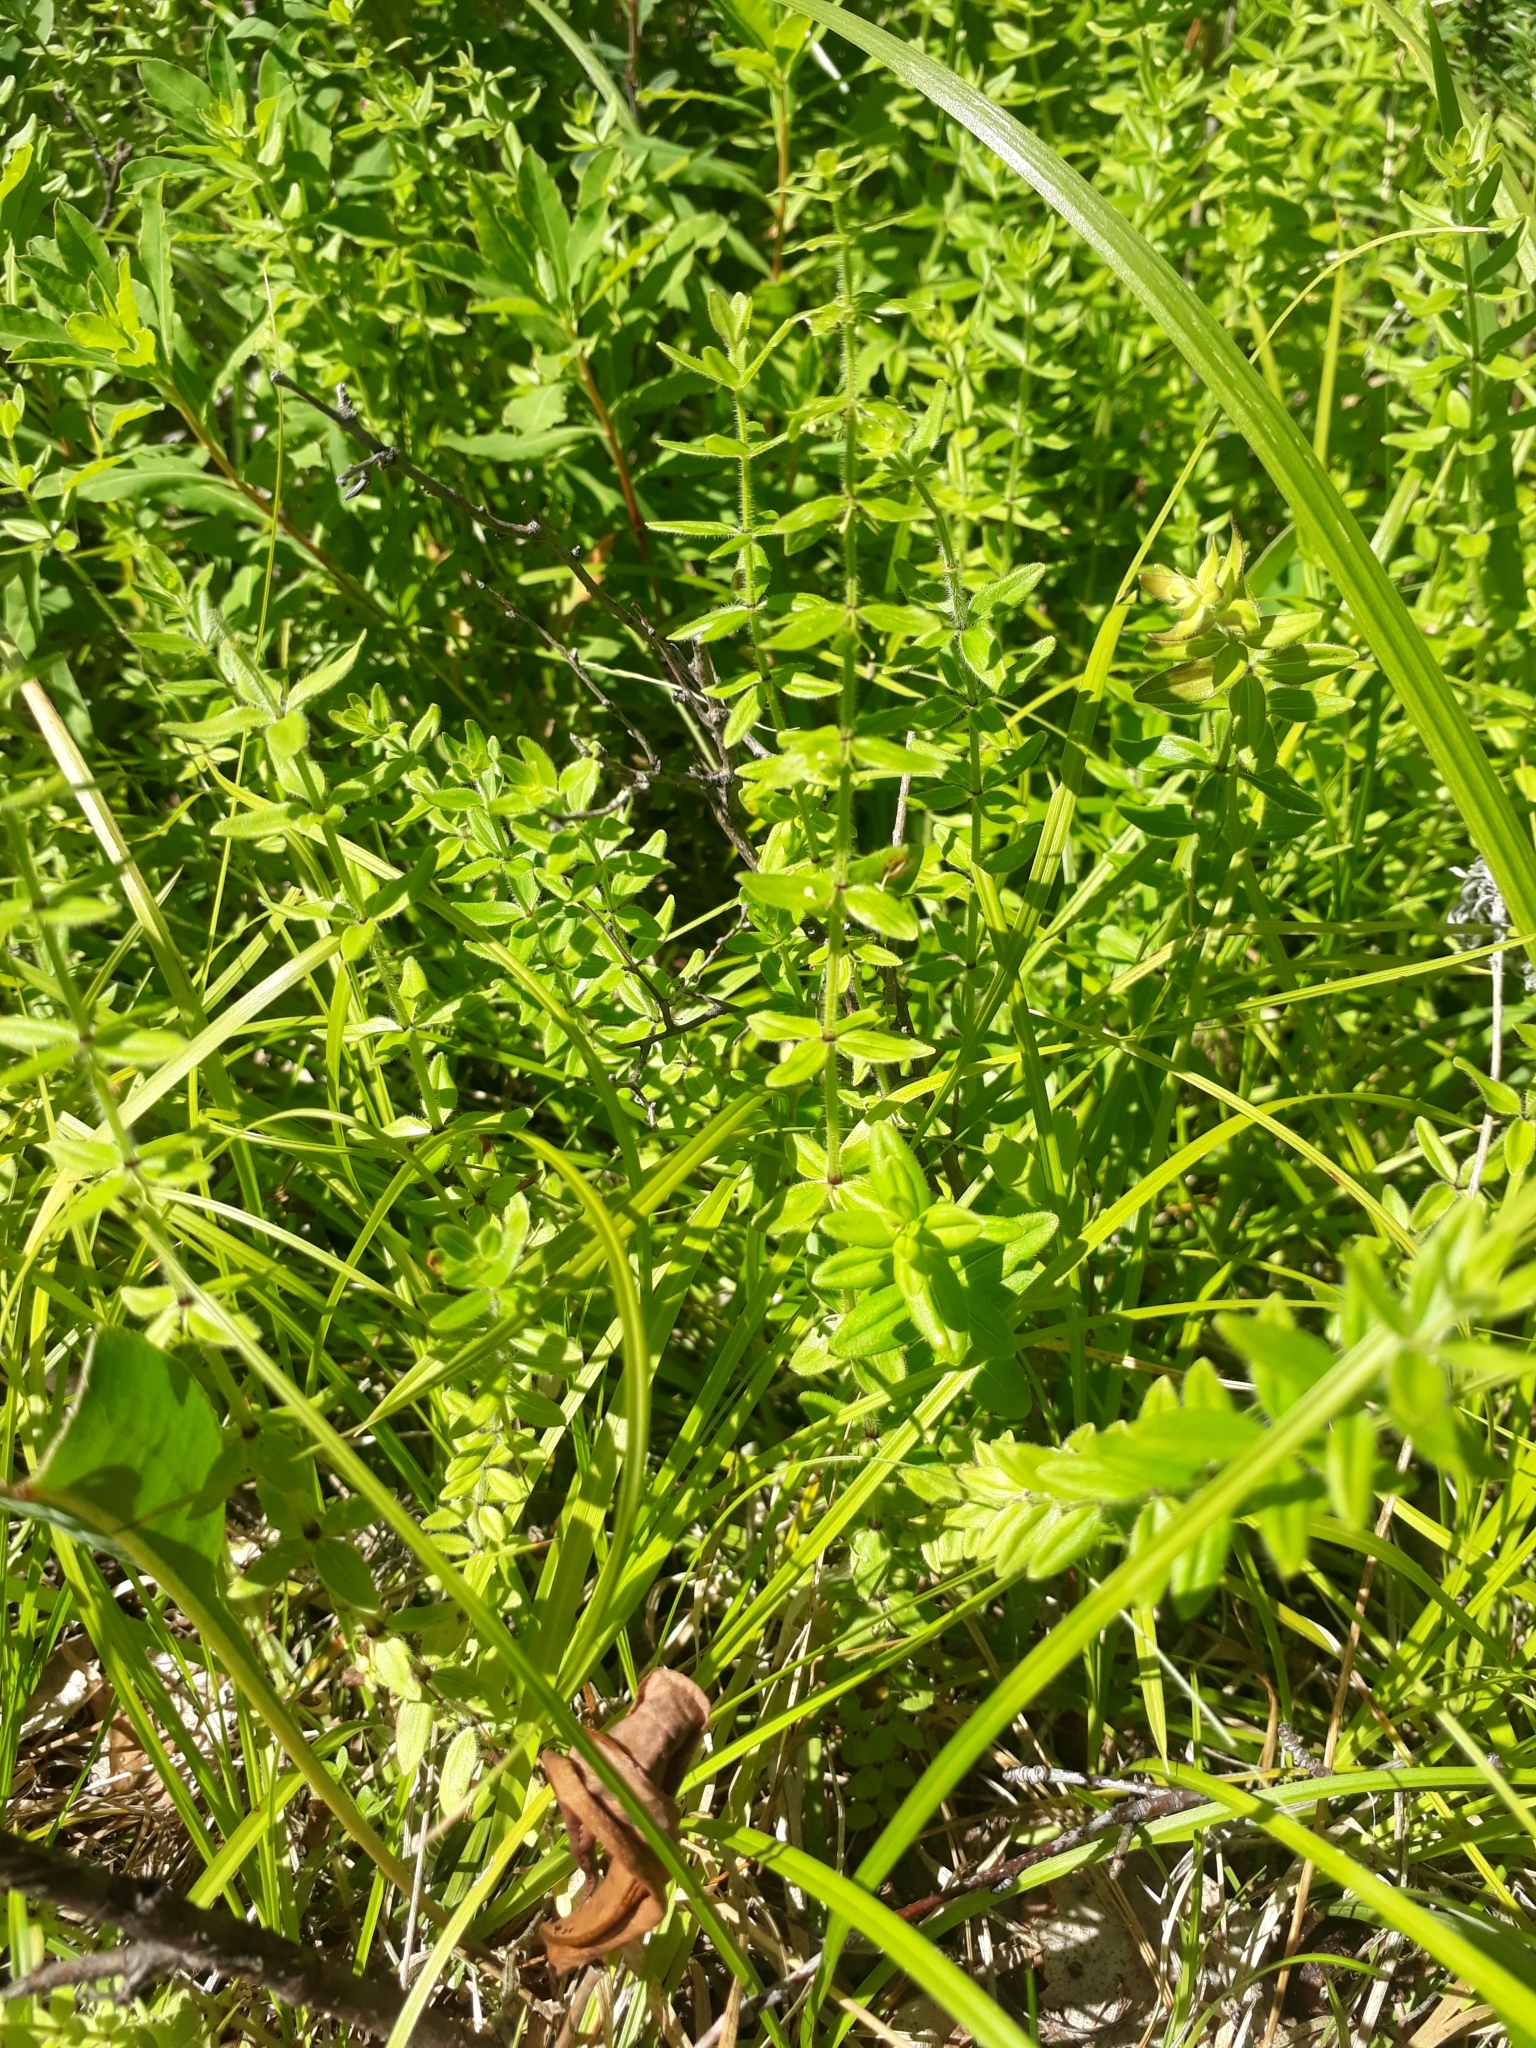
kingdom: Plantae
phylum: Tracheophyta
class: Magnoliopsida
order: Gentianales
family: Rubiaceae
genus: Cruciata
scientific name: Cruciata glabra
